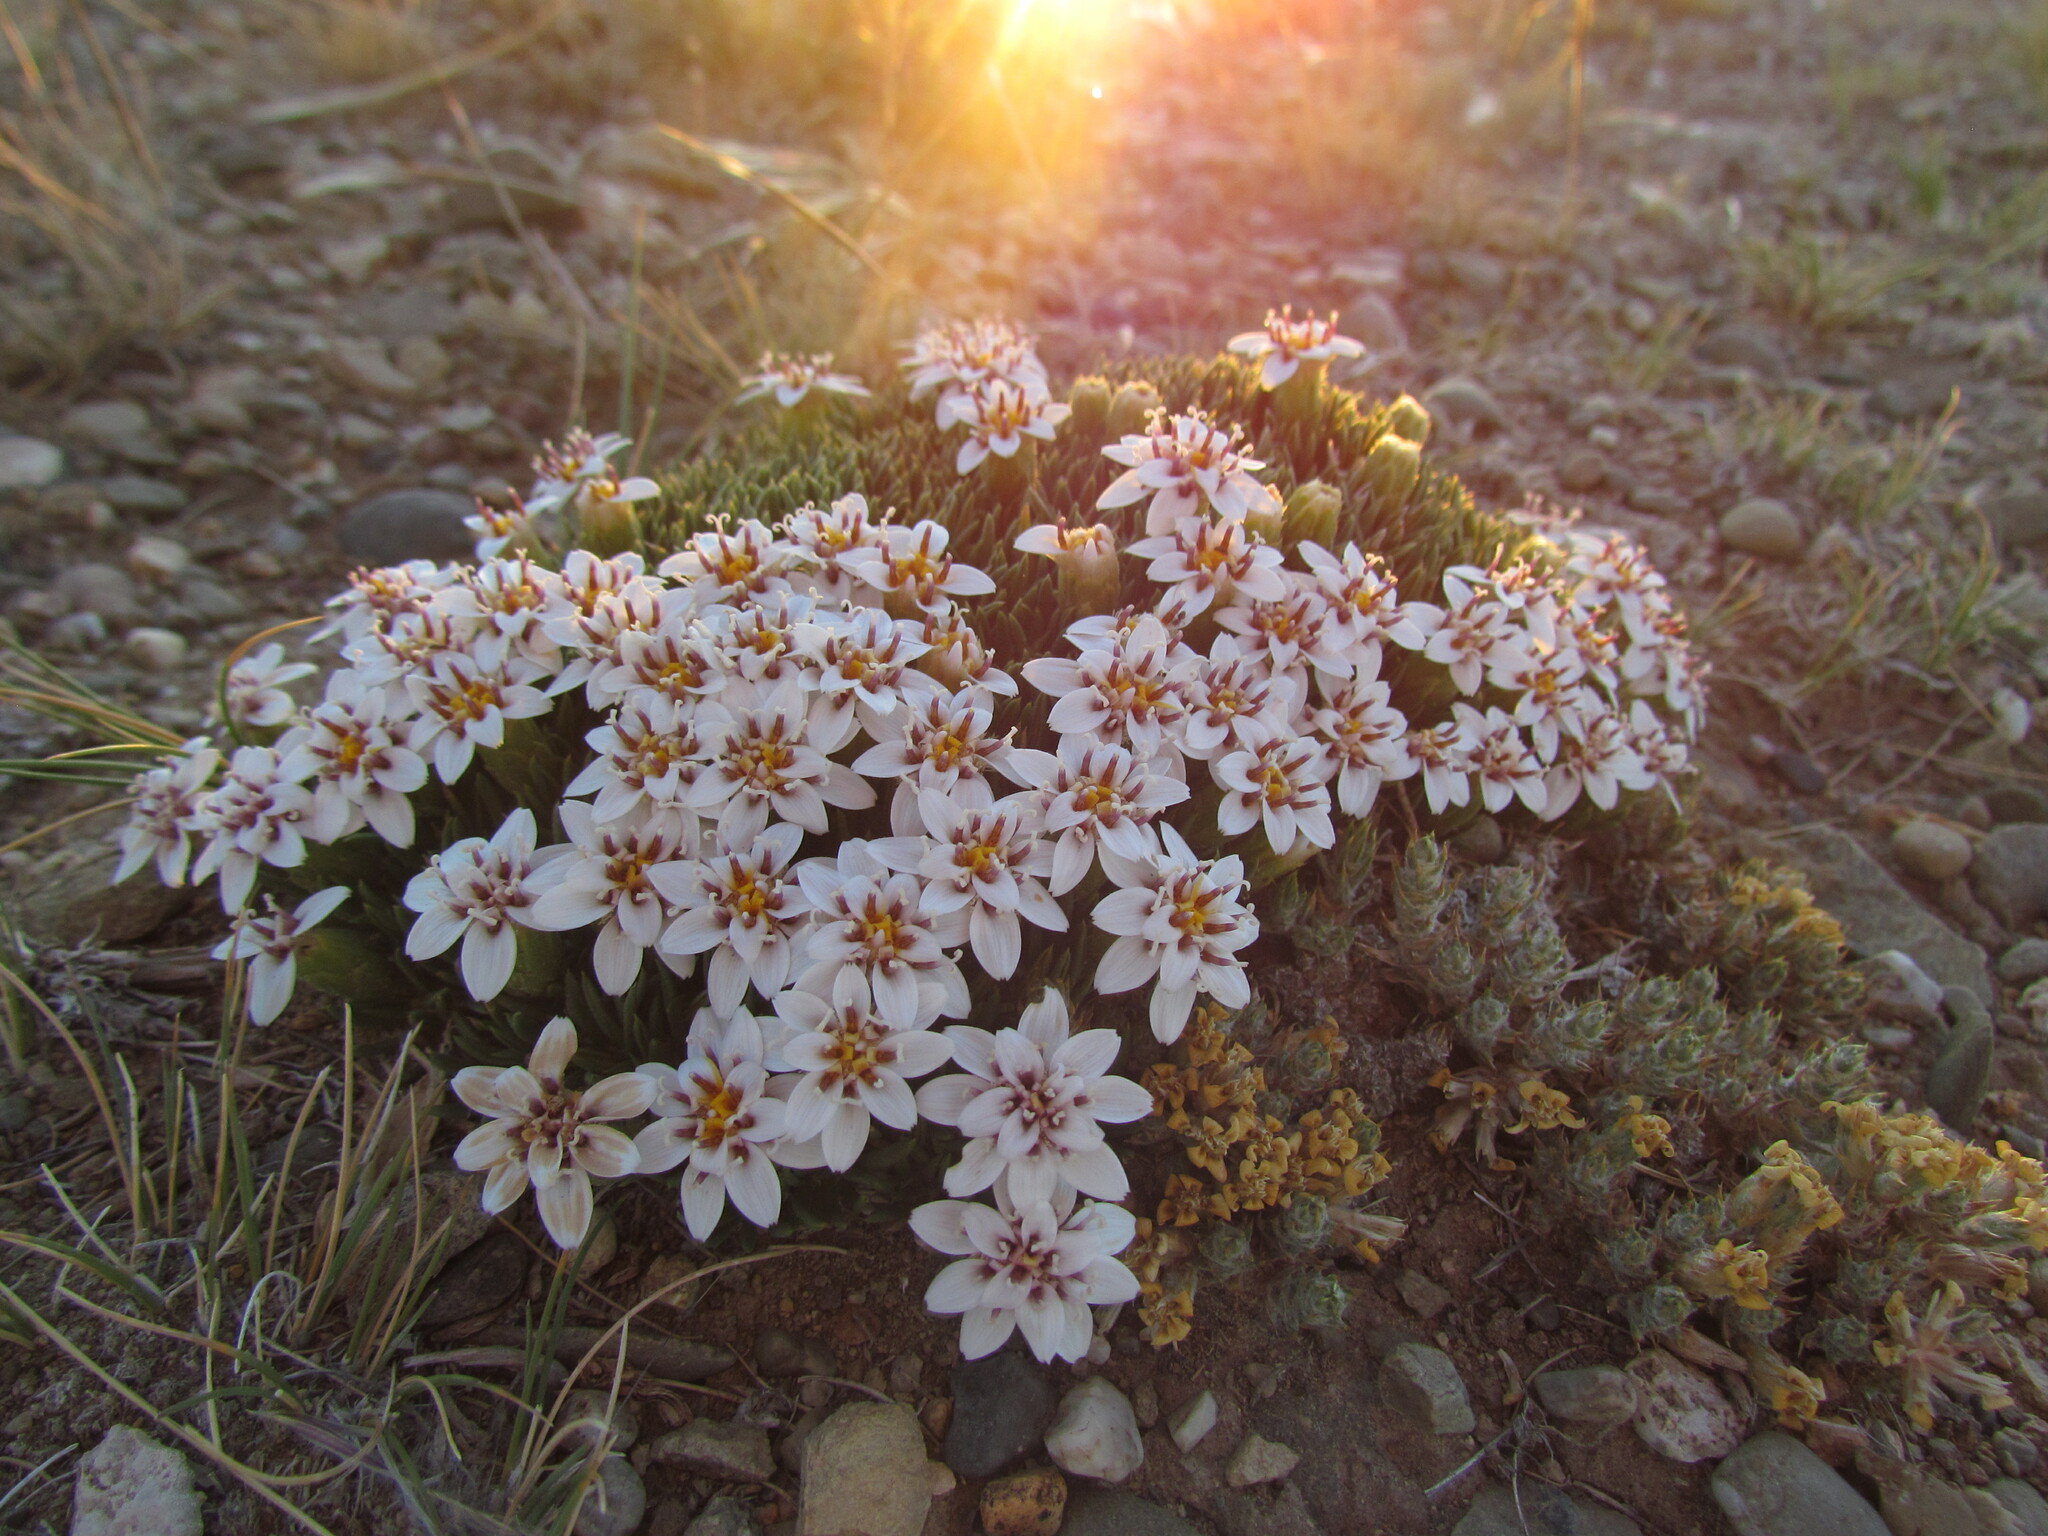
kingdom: Plantae
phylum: Tracheophyta
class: Magnoliopsida
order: Asterales
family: Asteraceae
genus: Burkartia
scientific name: Burkartia lanigera
